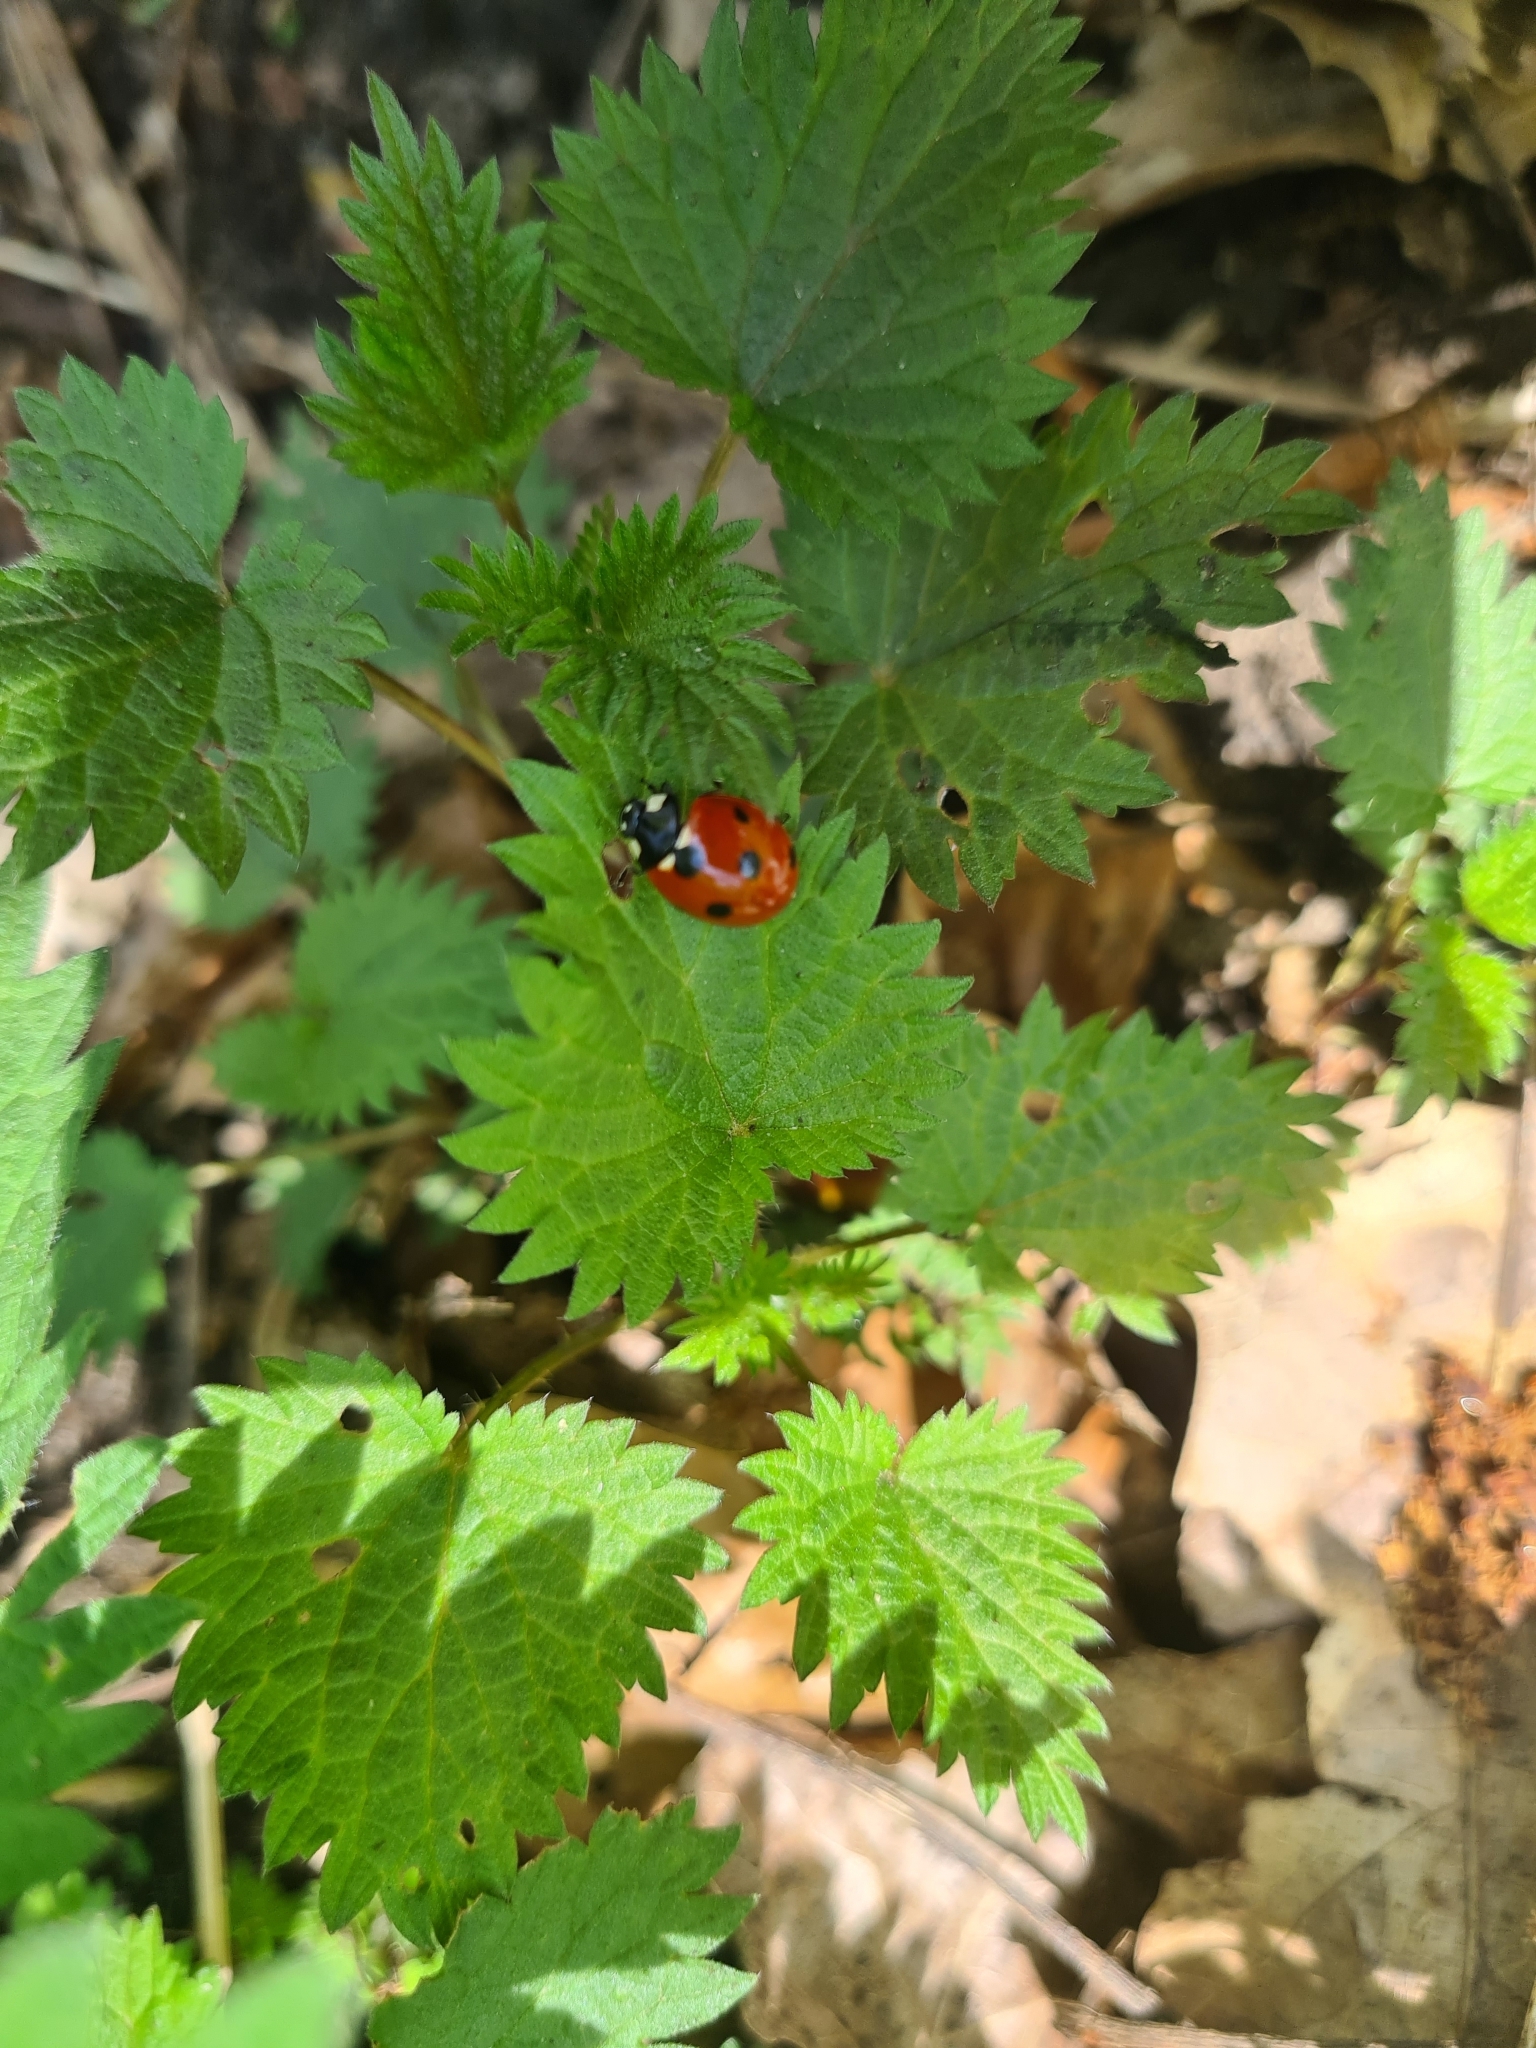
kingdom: Animalia
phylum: Arthropoda
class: Insecta
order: Coleoptera
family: Coccinellidae
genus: Coccinella
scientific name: Coccinella septempunctata
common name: Sevenspotted lady beetle
